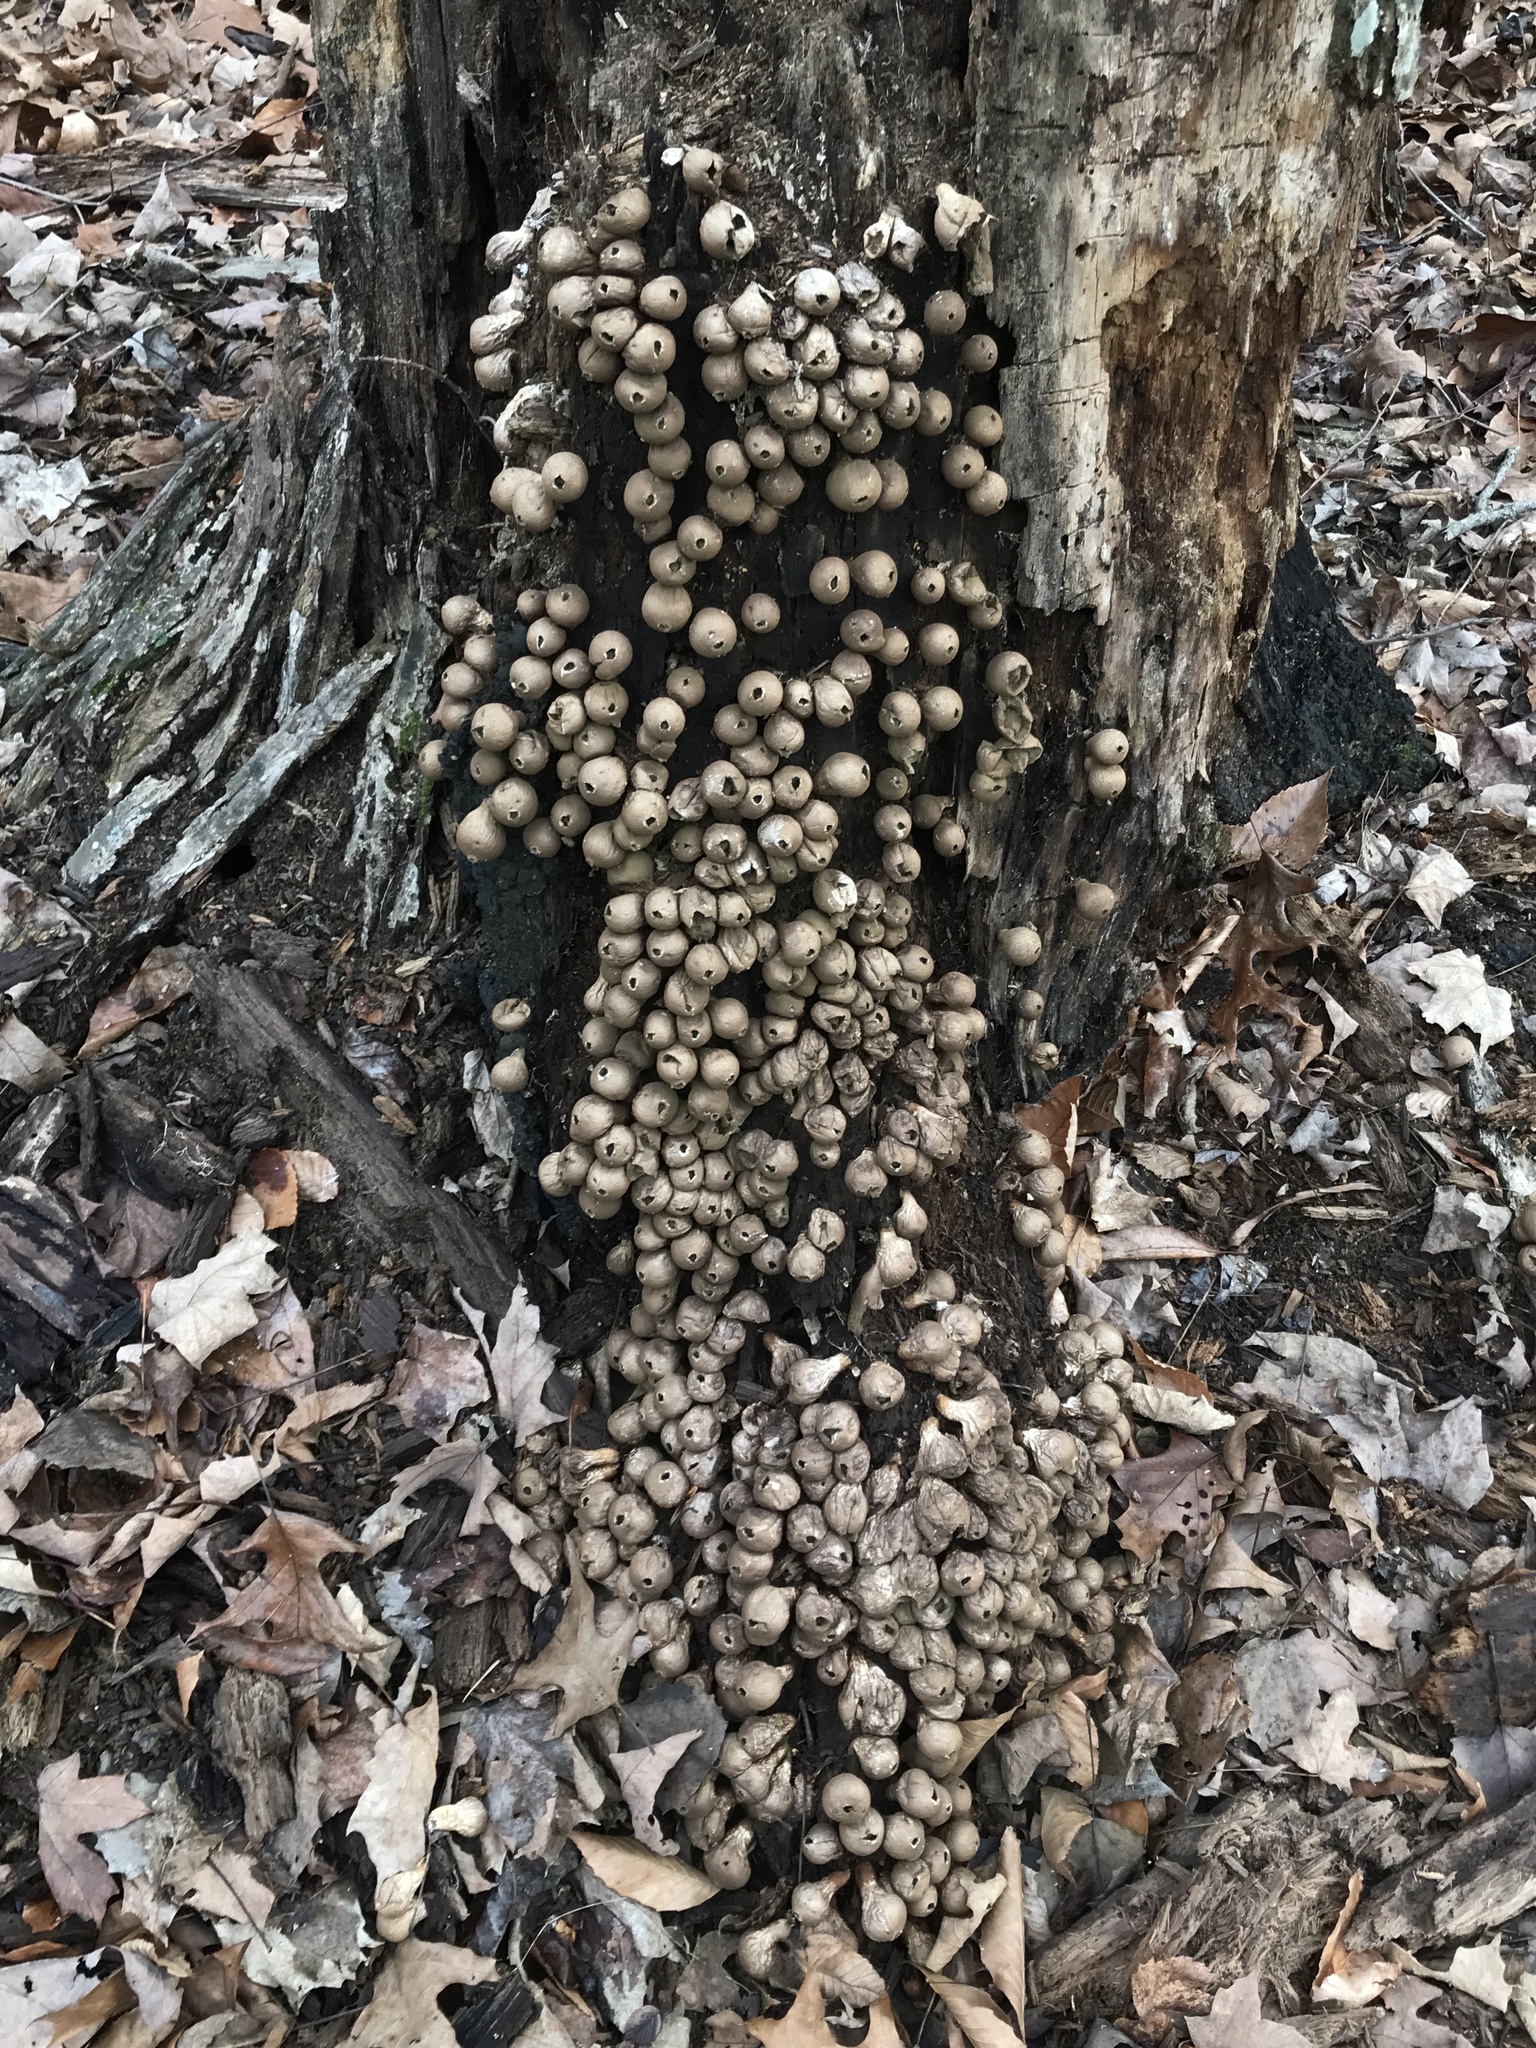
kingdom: Fungi
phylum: Basidiomycota
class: Agaricomycetes
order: Agaricales
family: Lycoperdaceae
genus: Apioperdon
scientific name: Apioperdon pyriforme
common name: Pear-shaped puffball
